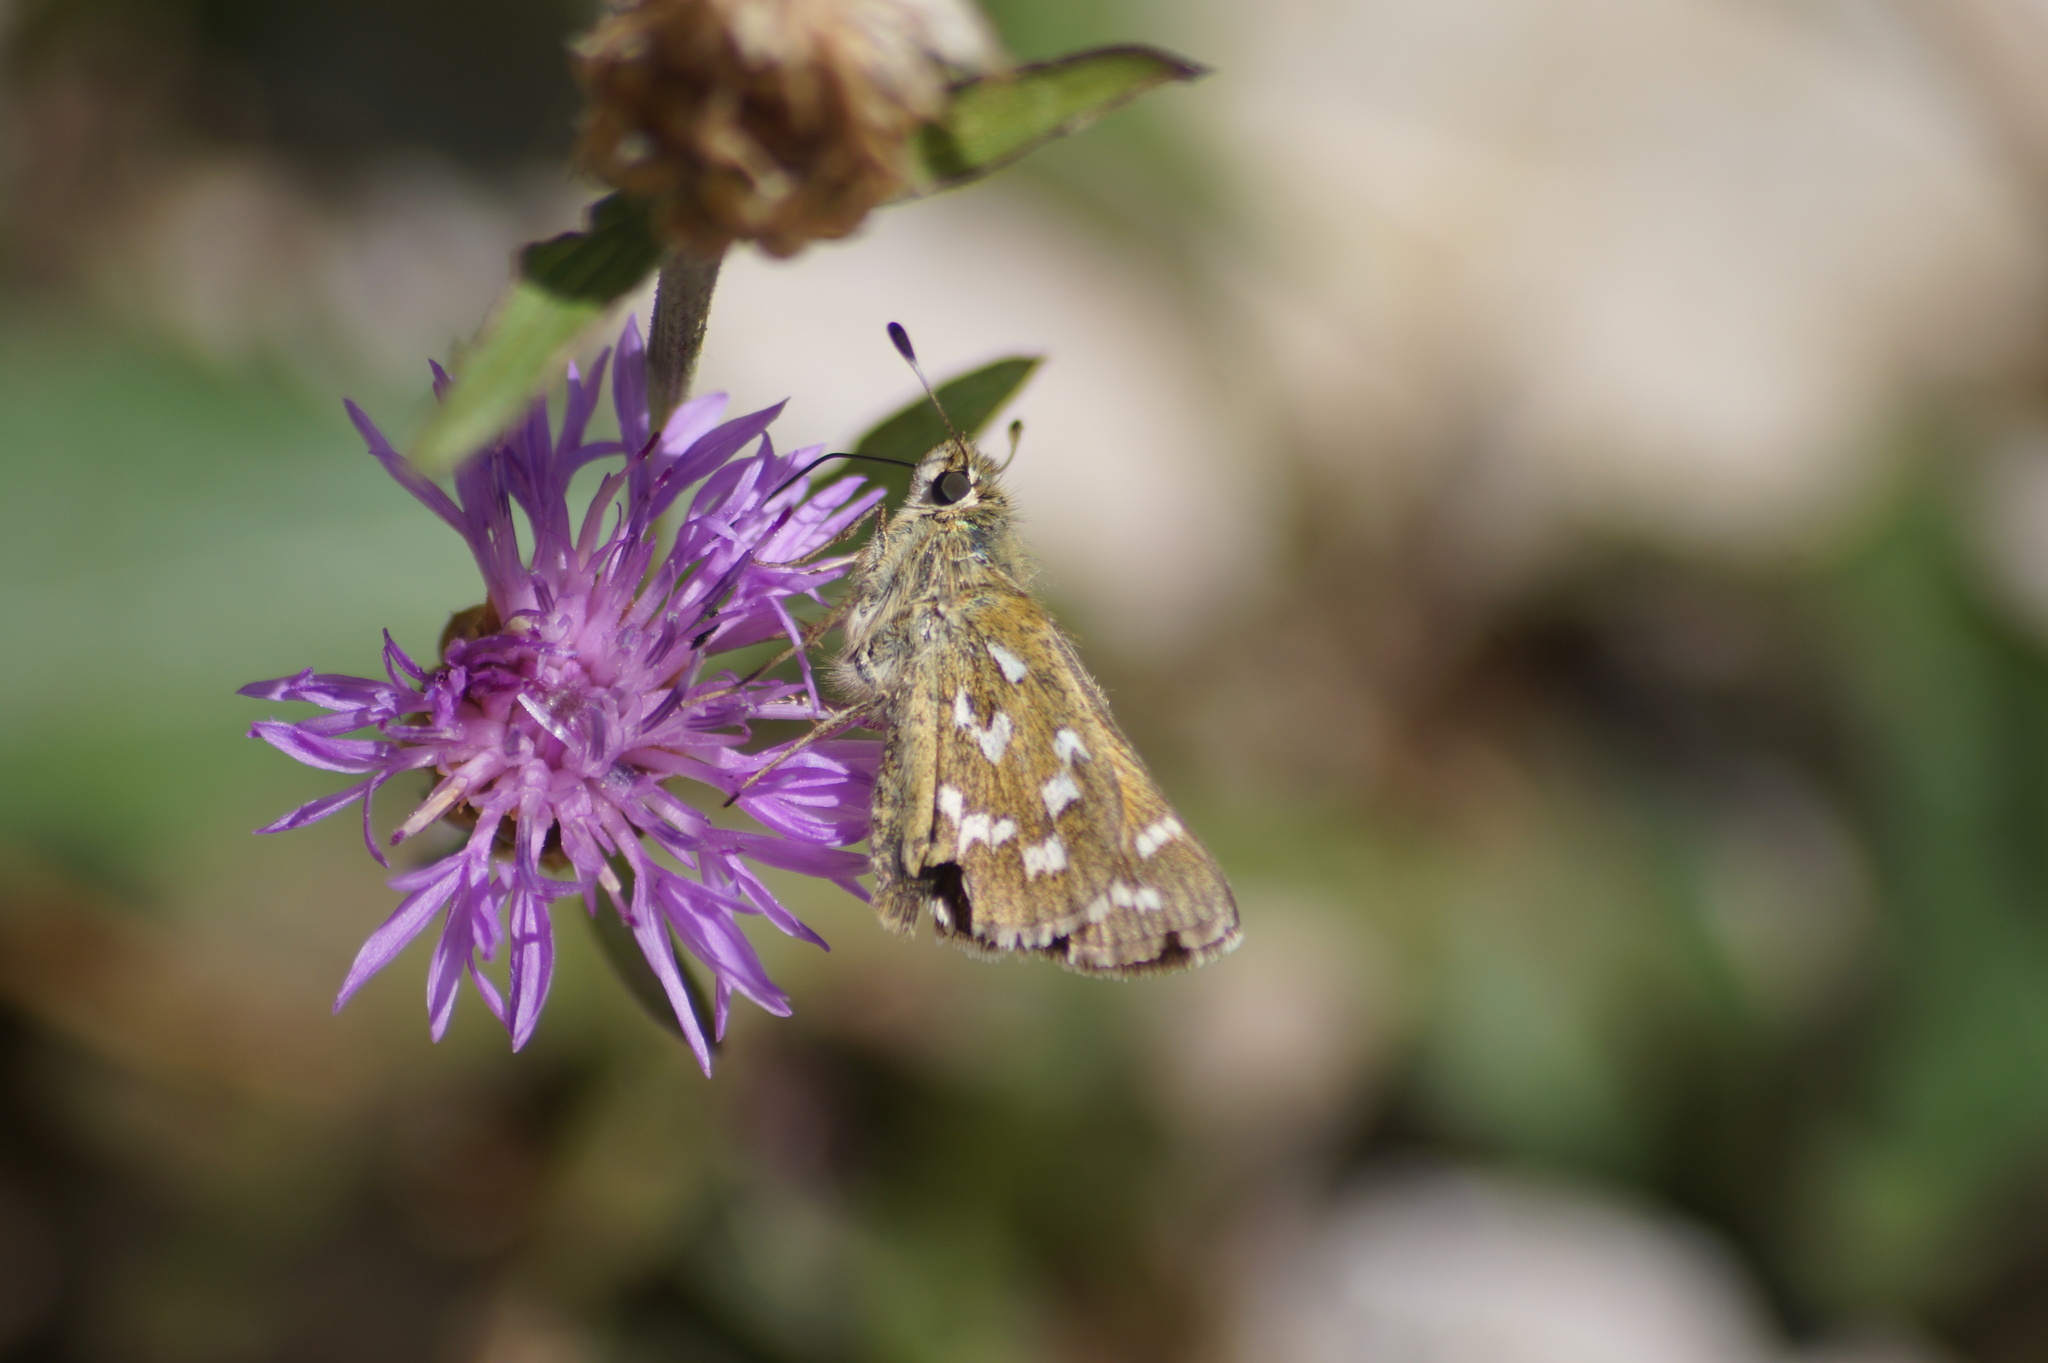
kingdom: Animalia
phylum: Arthropoda
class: Insecta
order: Lepidoptera
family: Hesperiidae
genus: Hesperia
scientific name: Hesperia comma
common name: Common branded skipper
